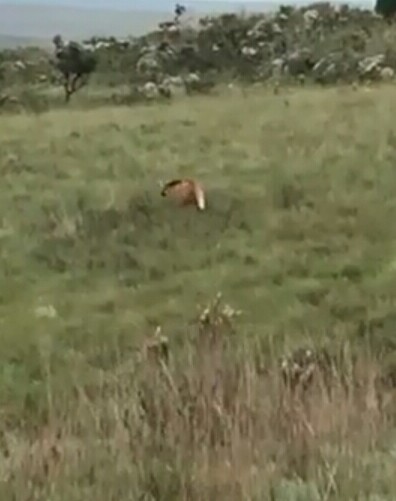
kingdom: Animalia
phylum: Chordata
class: Mammalia
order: Carnivora
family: Canidae
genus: Chrysocyon
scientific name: Chrysocyon brachyurus
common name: Maned wolf
